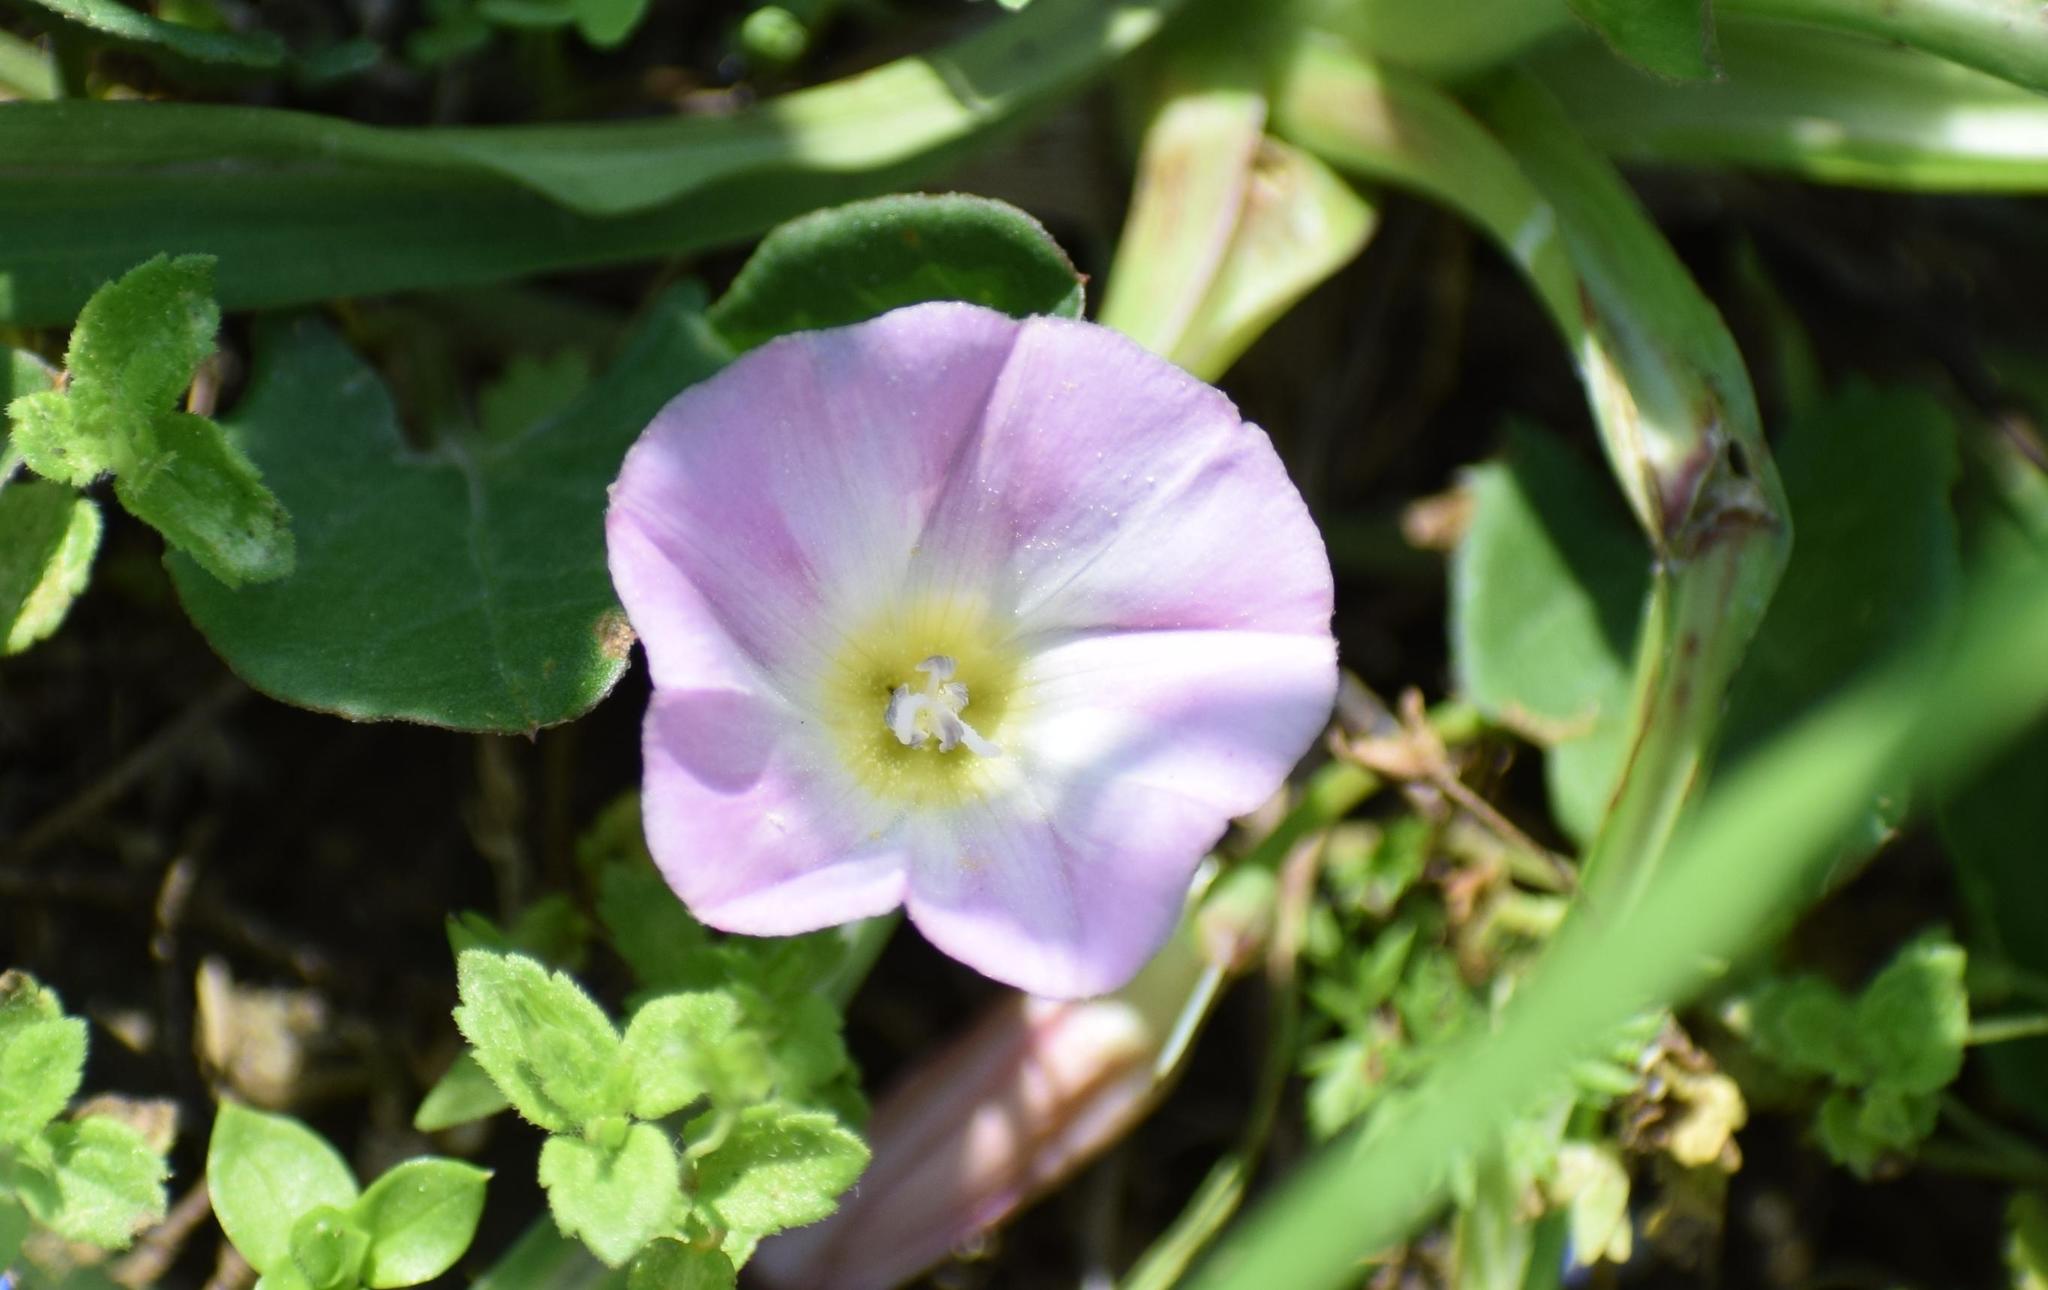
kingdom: Plantae
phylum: Tracheophyta
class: Magnoliopsida
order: Solanales
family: Convolvulaceae
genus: Convolvulus
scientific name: Convolvulus arvensis
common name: Field bindweed
